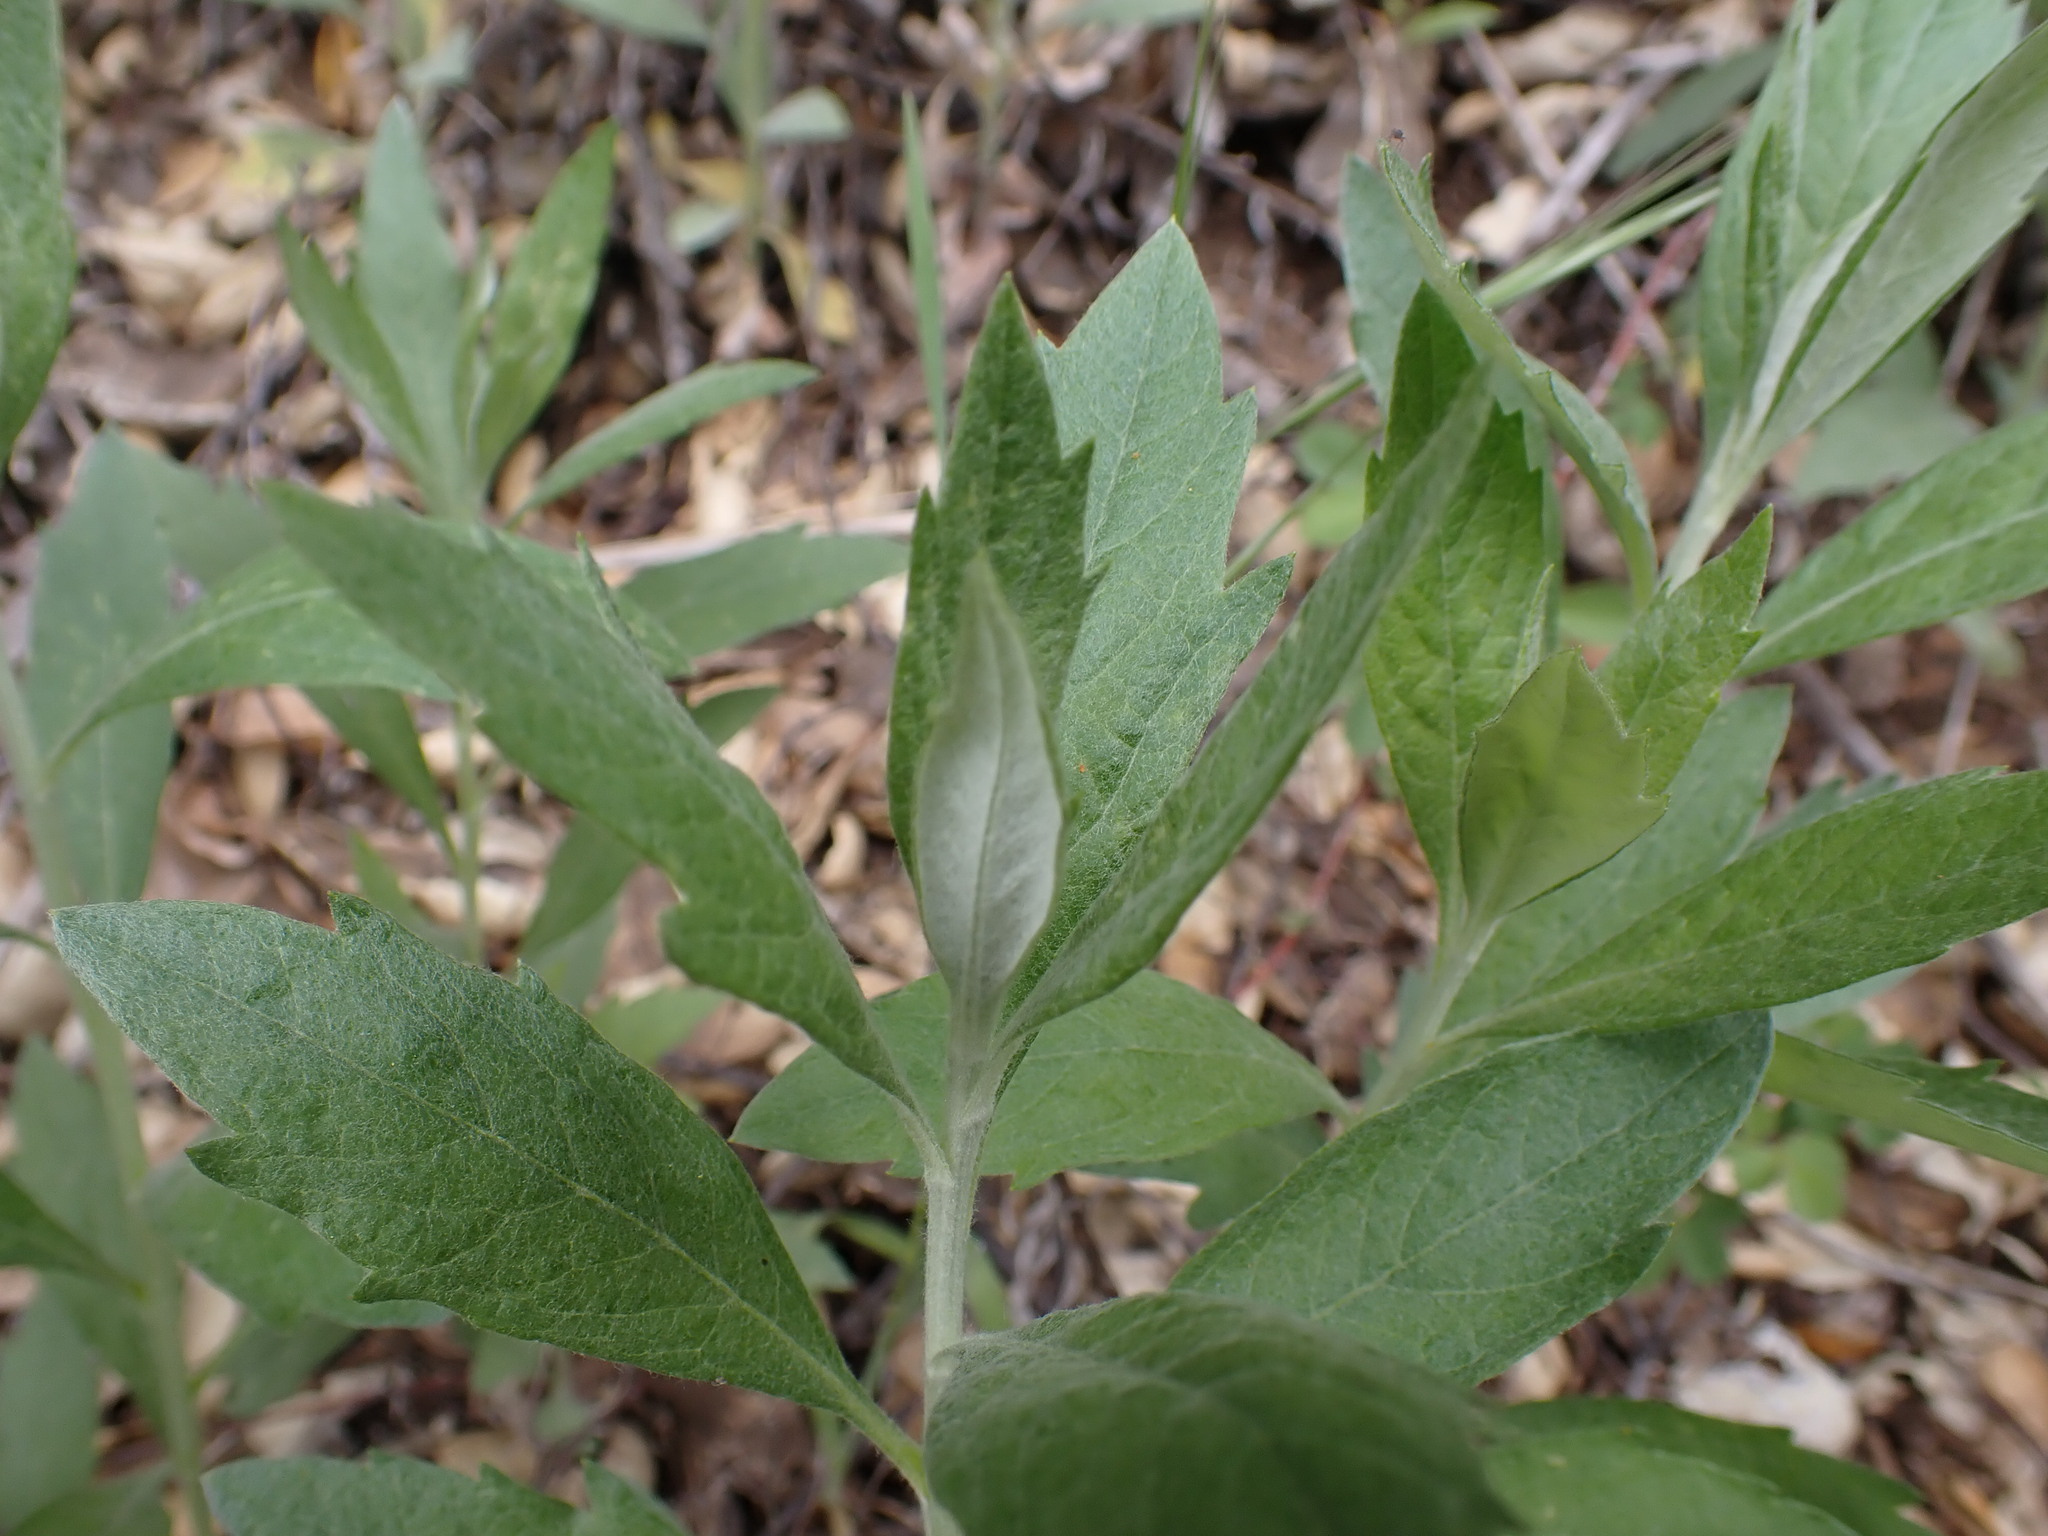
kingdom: Plantae
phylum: Tracheophyta
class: Magnoliopsida
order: Asterales
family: Asteraceae
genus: Artemisia
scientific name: Artemisia douglasiana
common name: Northwest mugwort
